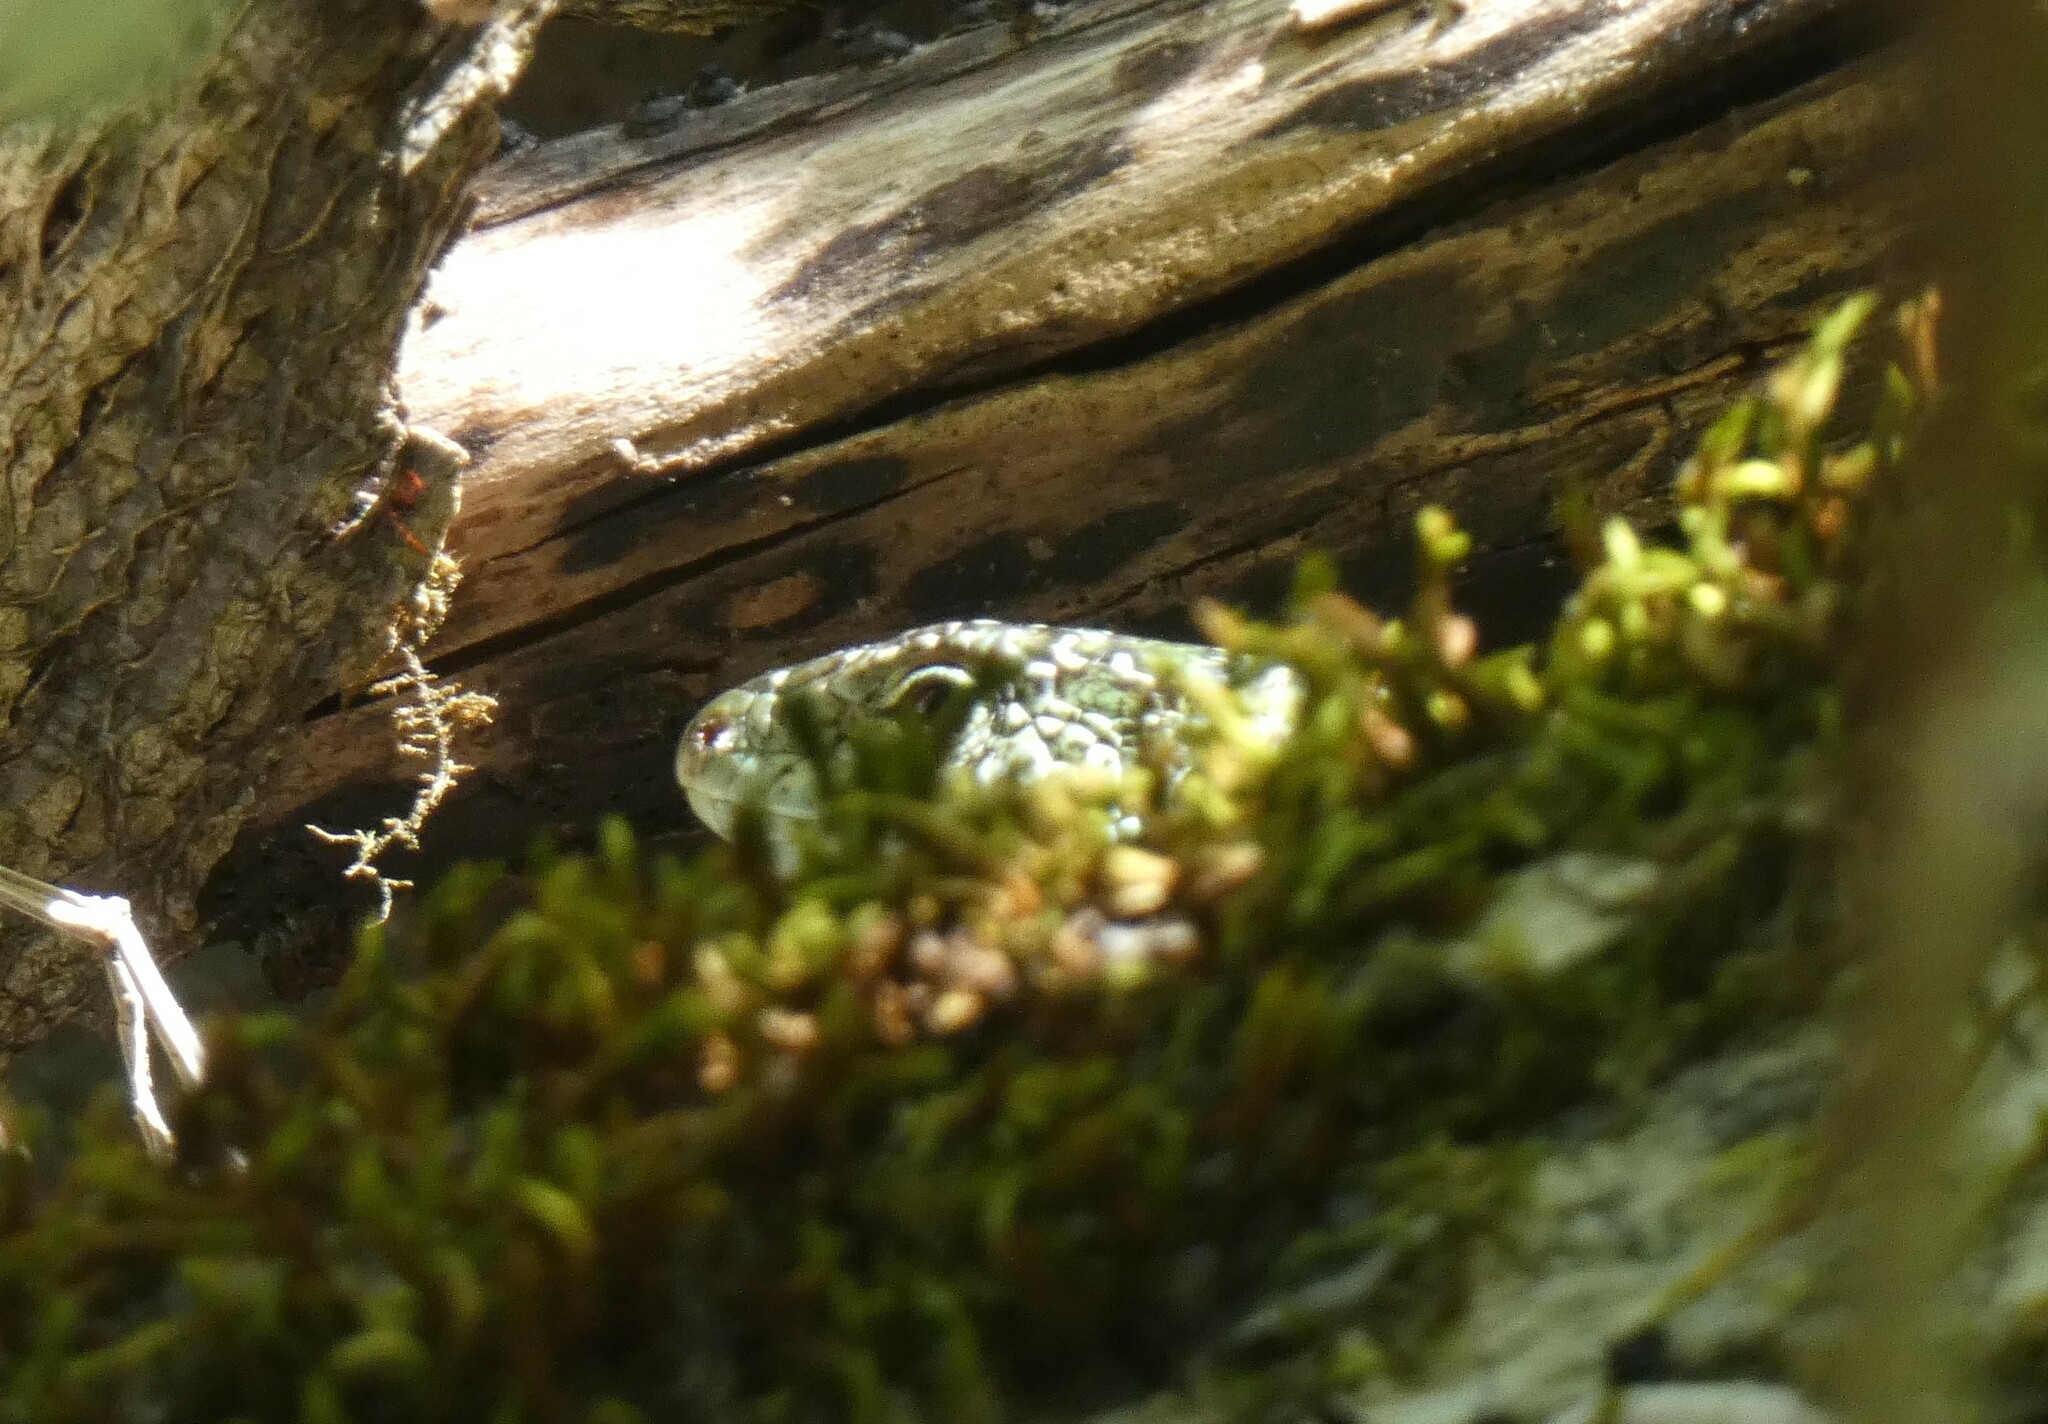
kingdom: Animalia
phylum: Chordata
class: Squamata
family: Lacertidae
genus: Lacerta
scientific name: Lacerta bilineata
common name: Western green lizard
